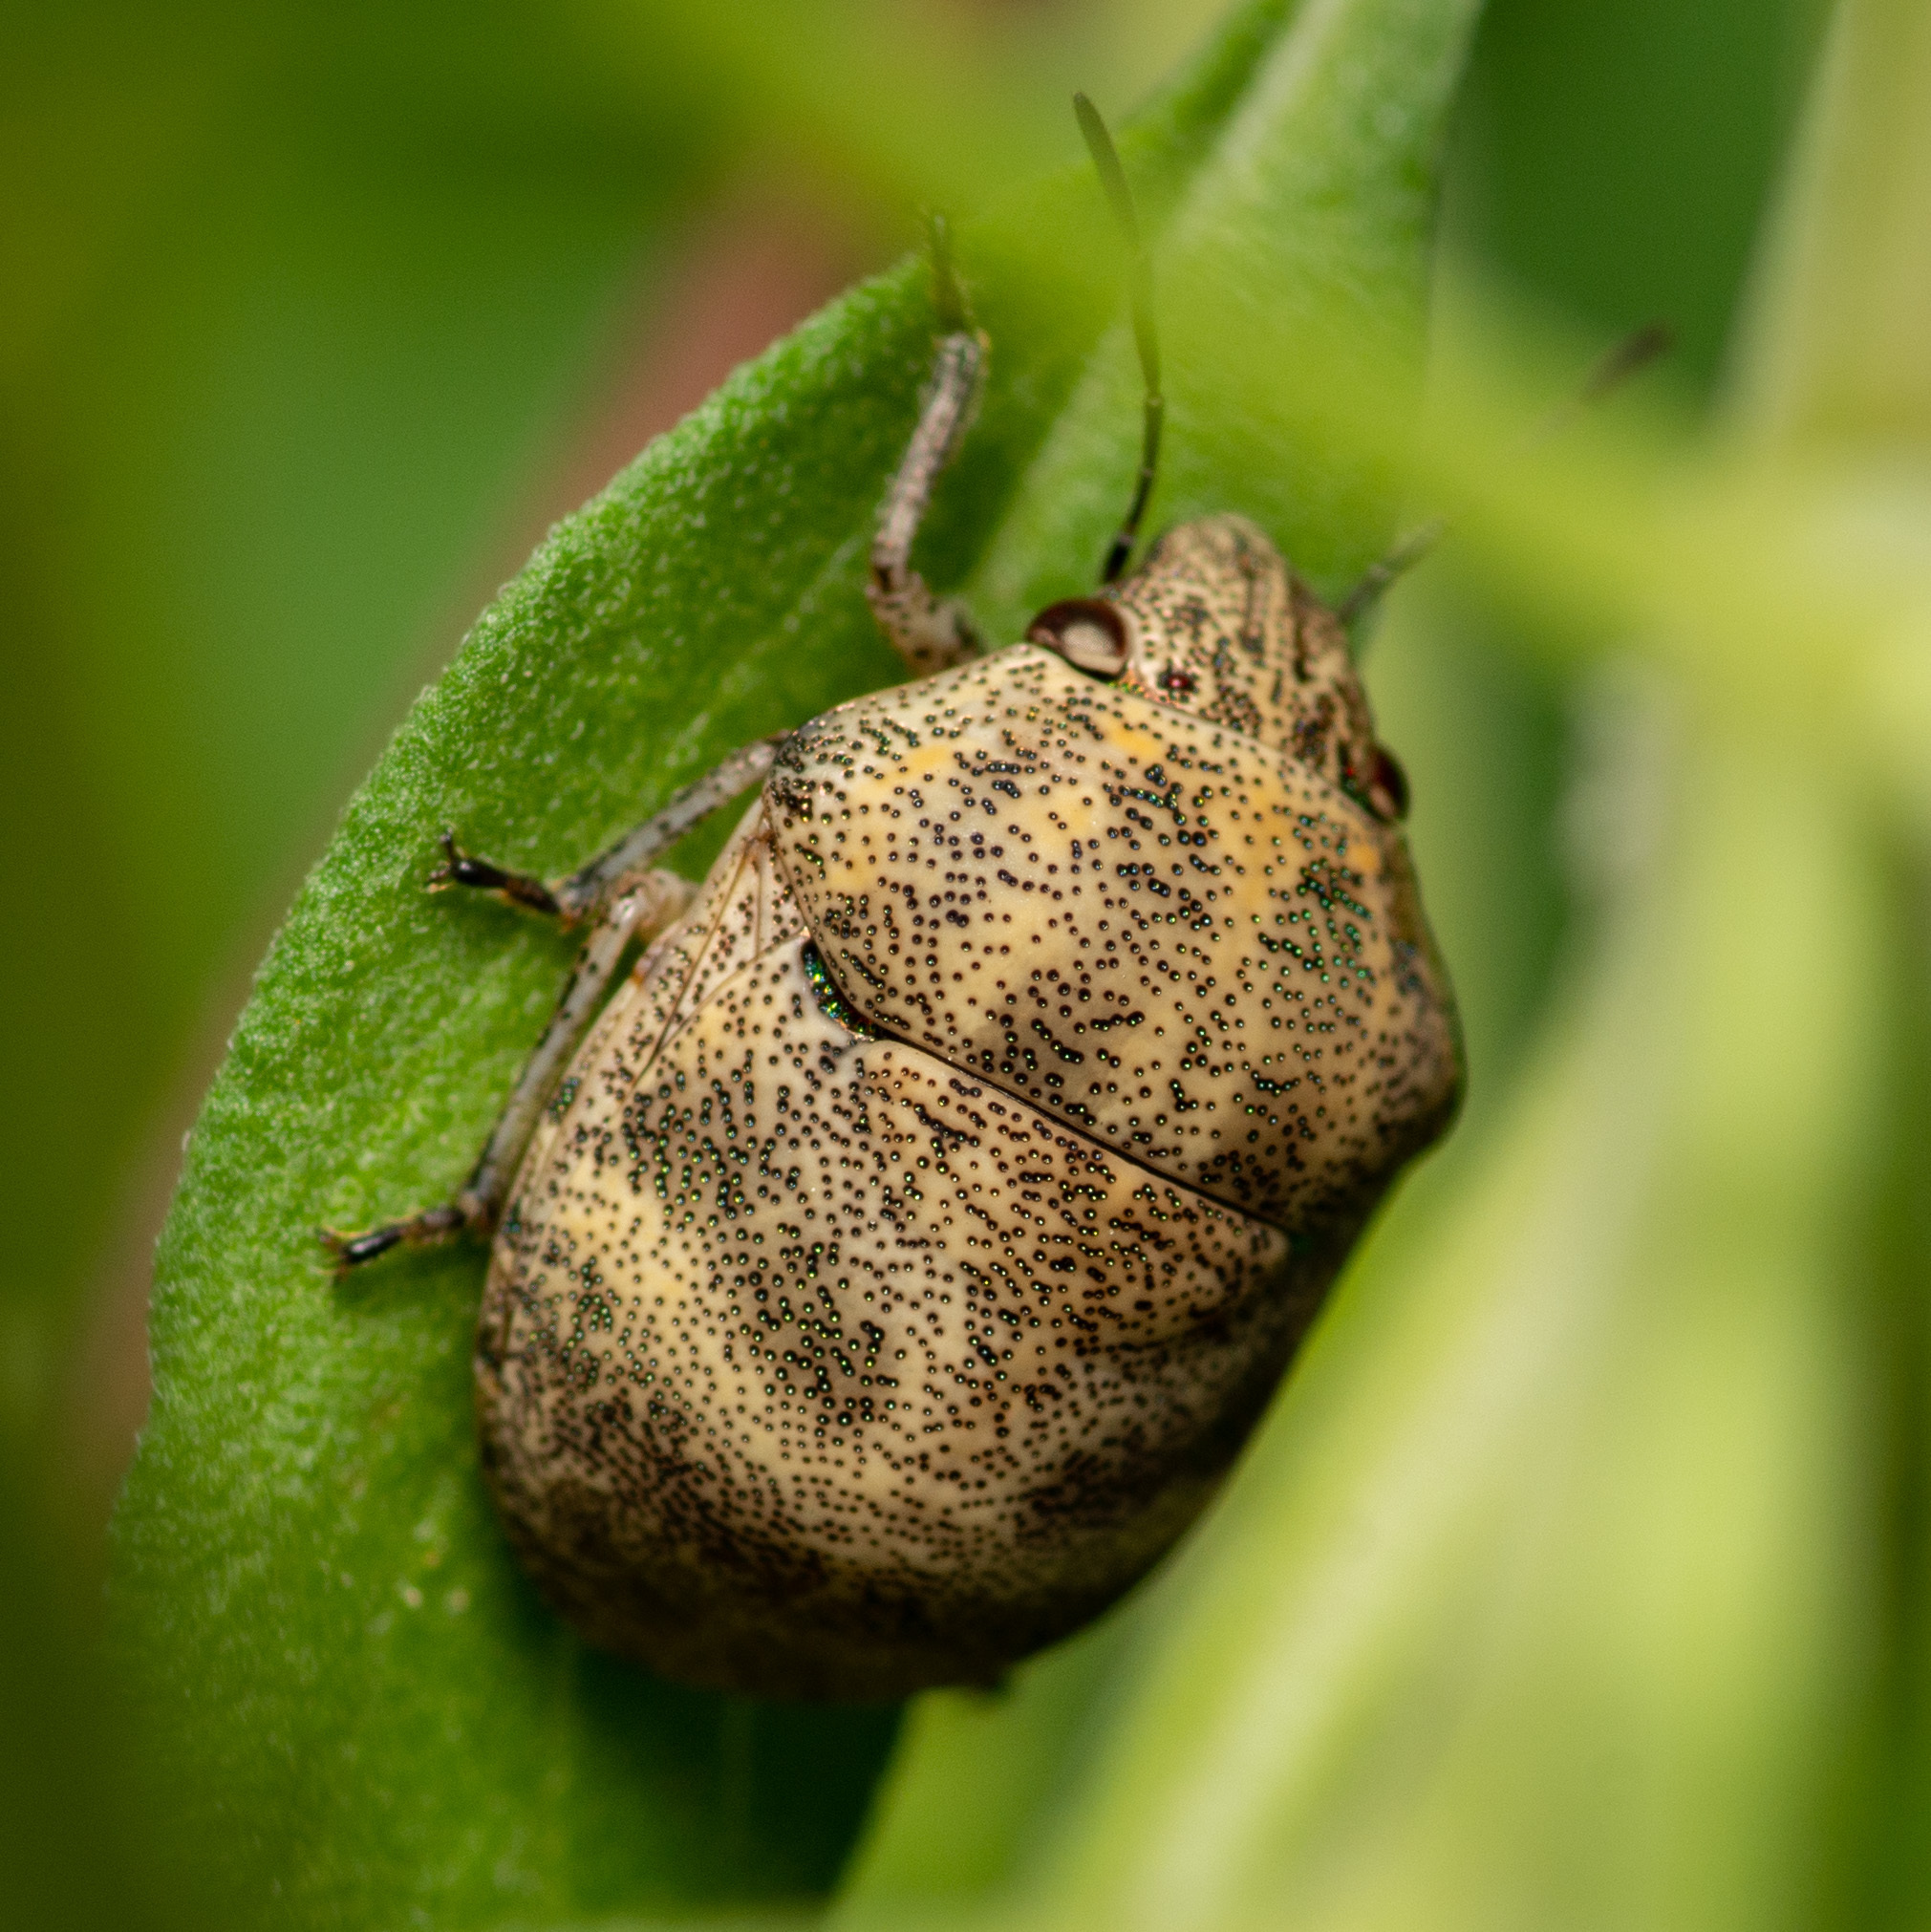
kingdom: Animalia
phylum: Arthropoda
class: Insecta
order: Hemiptera
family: Scutelleridae
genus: Orsilochides
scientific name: Orsilochides
